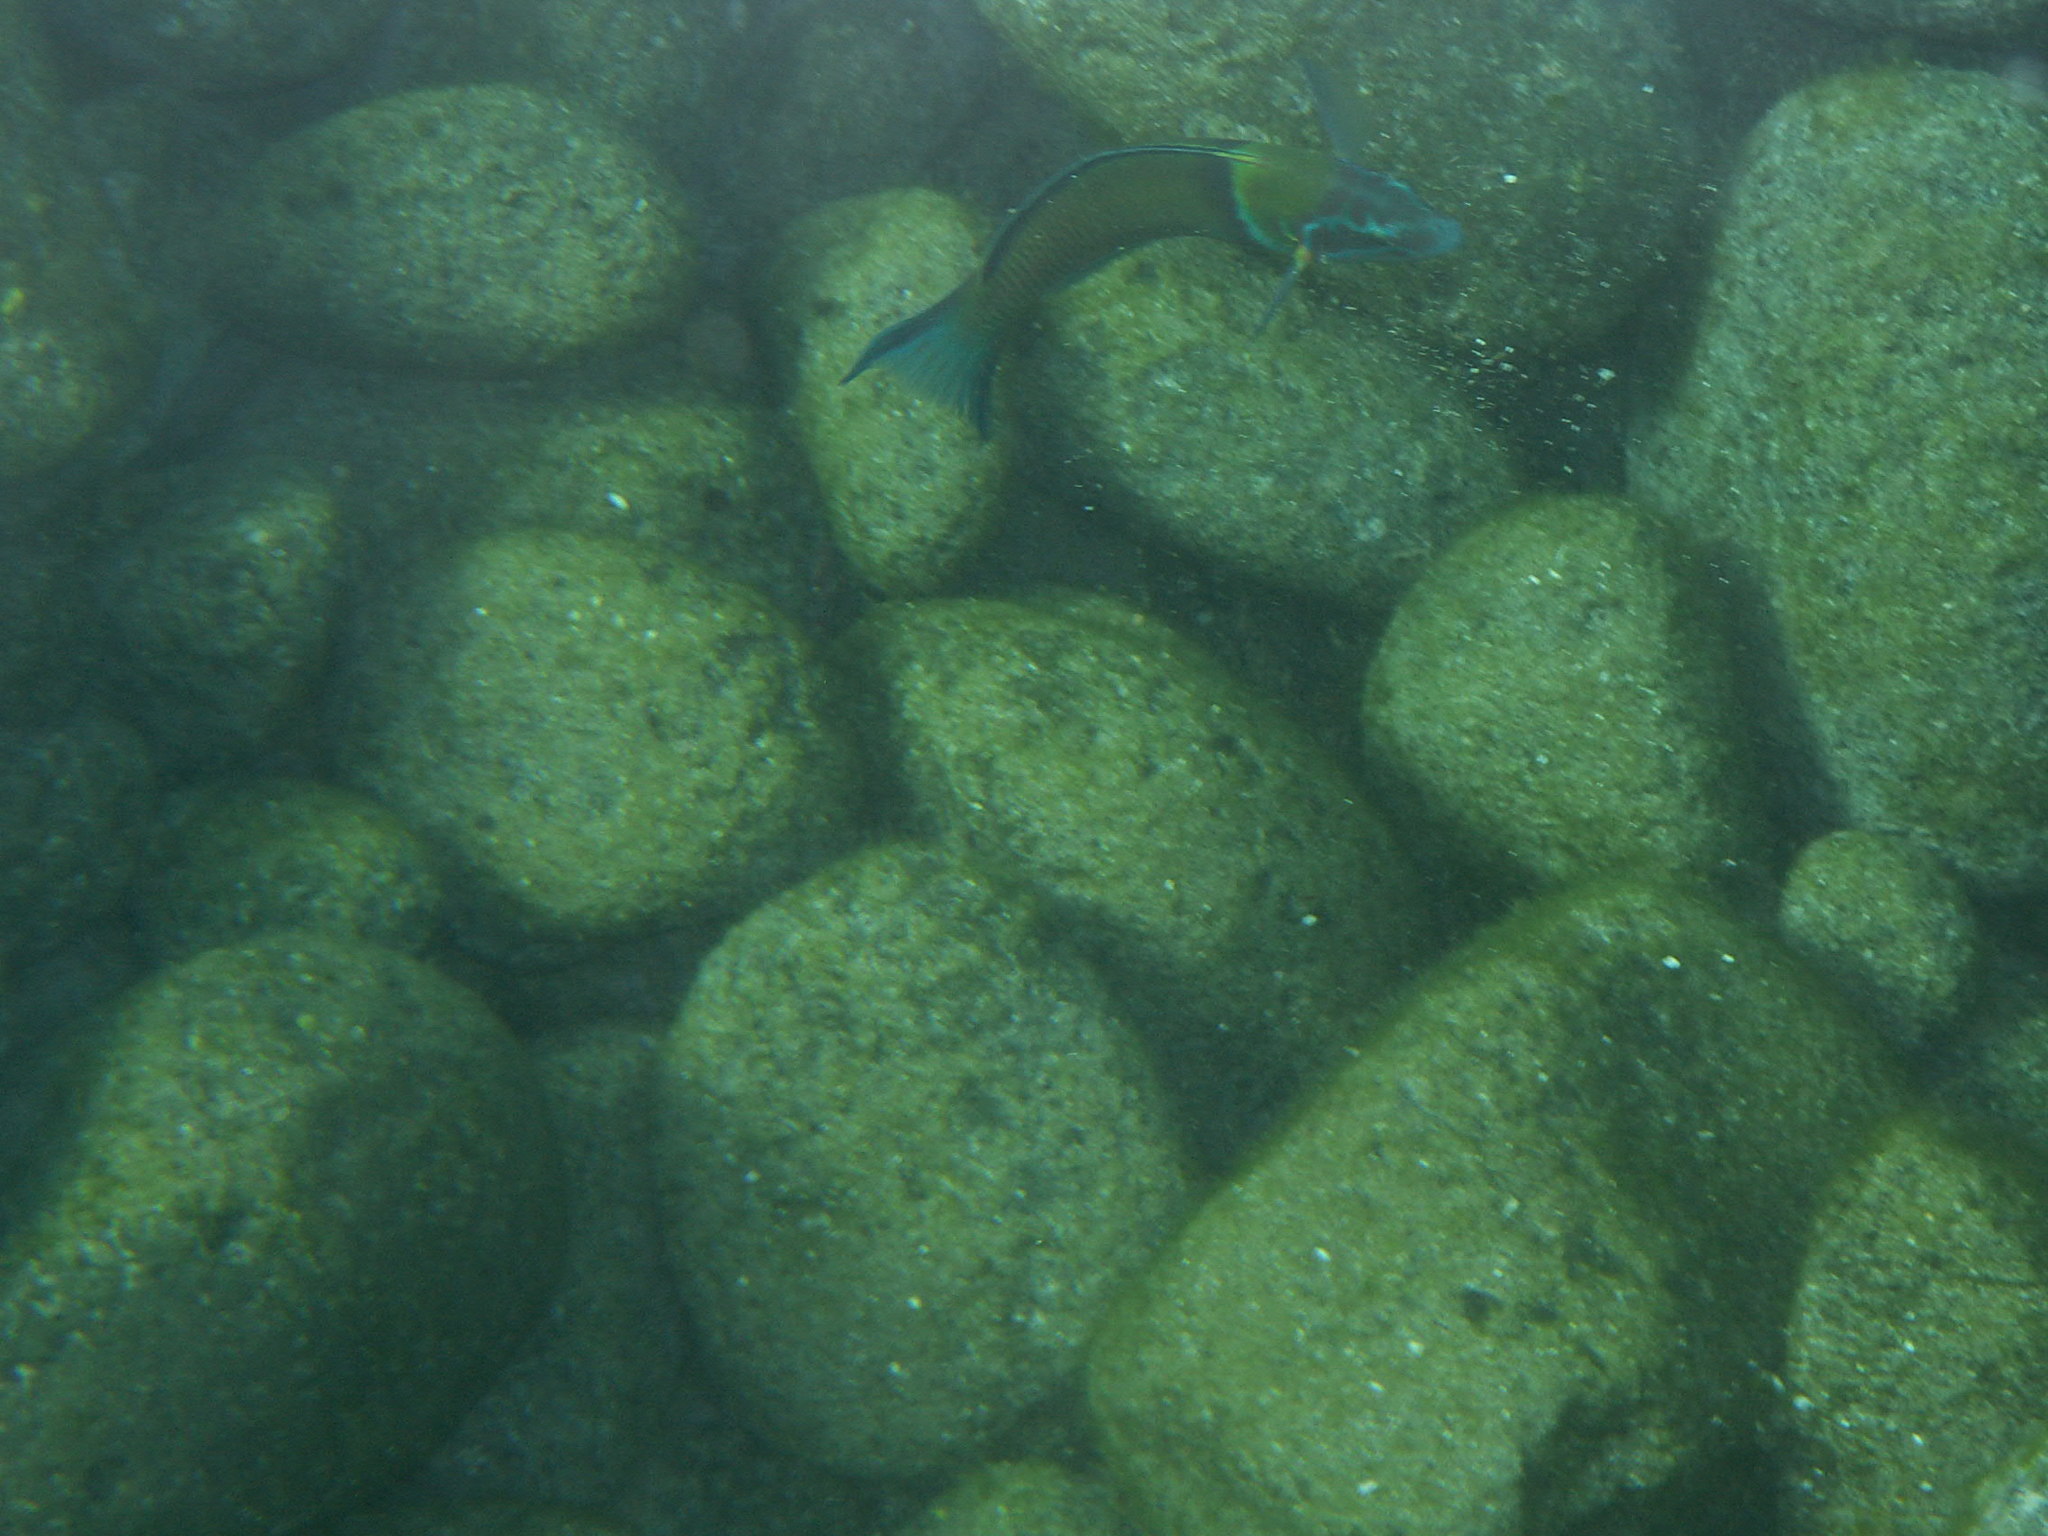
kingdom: Animalia
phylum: Chordata
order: Perciformes
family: Labridae
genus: Thalassoma
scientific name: Thalassoma pavo
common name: Ornate wrasse
